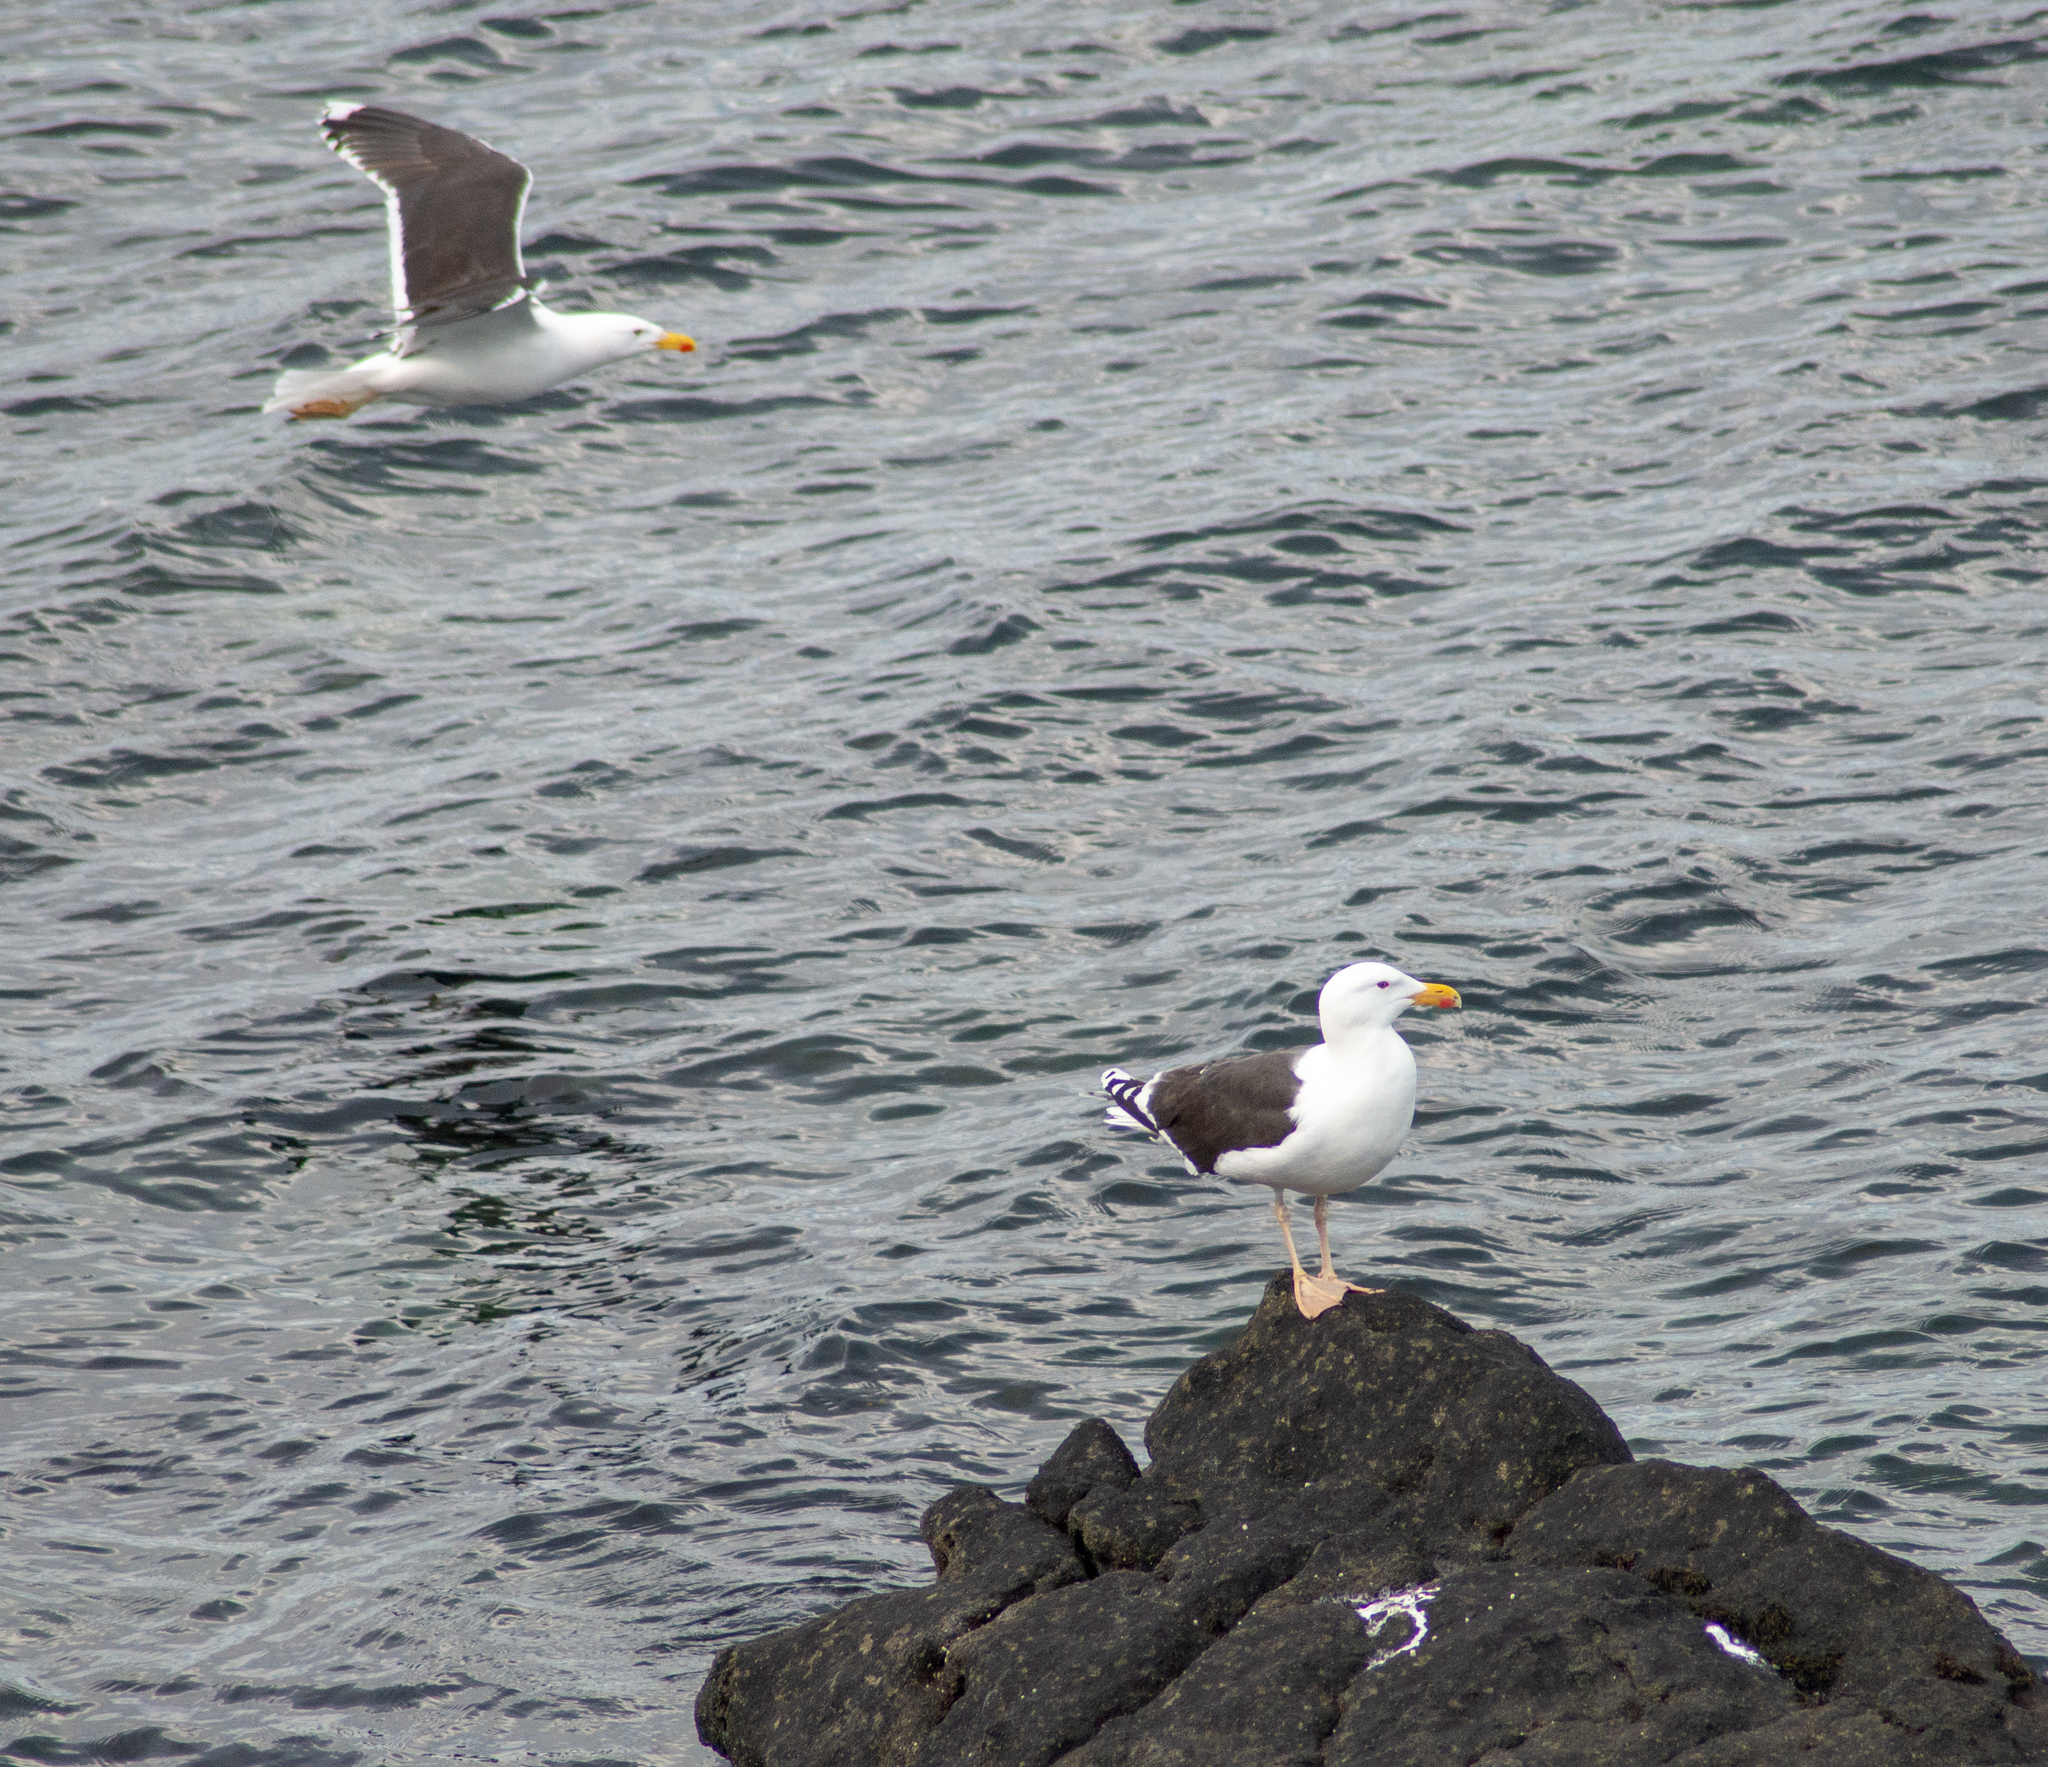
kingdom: Animalia
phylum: Chordata
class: Aves
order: Charadriiformes
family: Laridae
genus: Larus
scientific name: Larus fuscus
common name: Lesser black-backed gull
